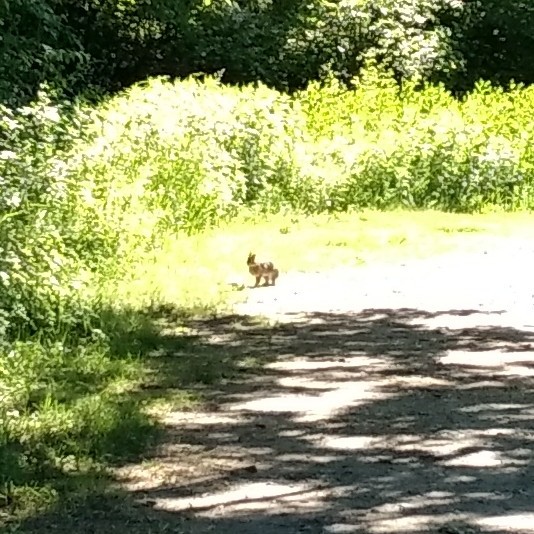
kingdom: Animalia
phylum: Chordata
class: Mammalia
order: Lagomorpha
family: Leporidae
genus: Sylvilagus
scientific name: Sylvilagus floridanus
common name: Eastern cottontail
